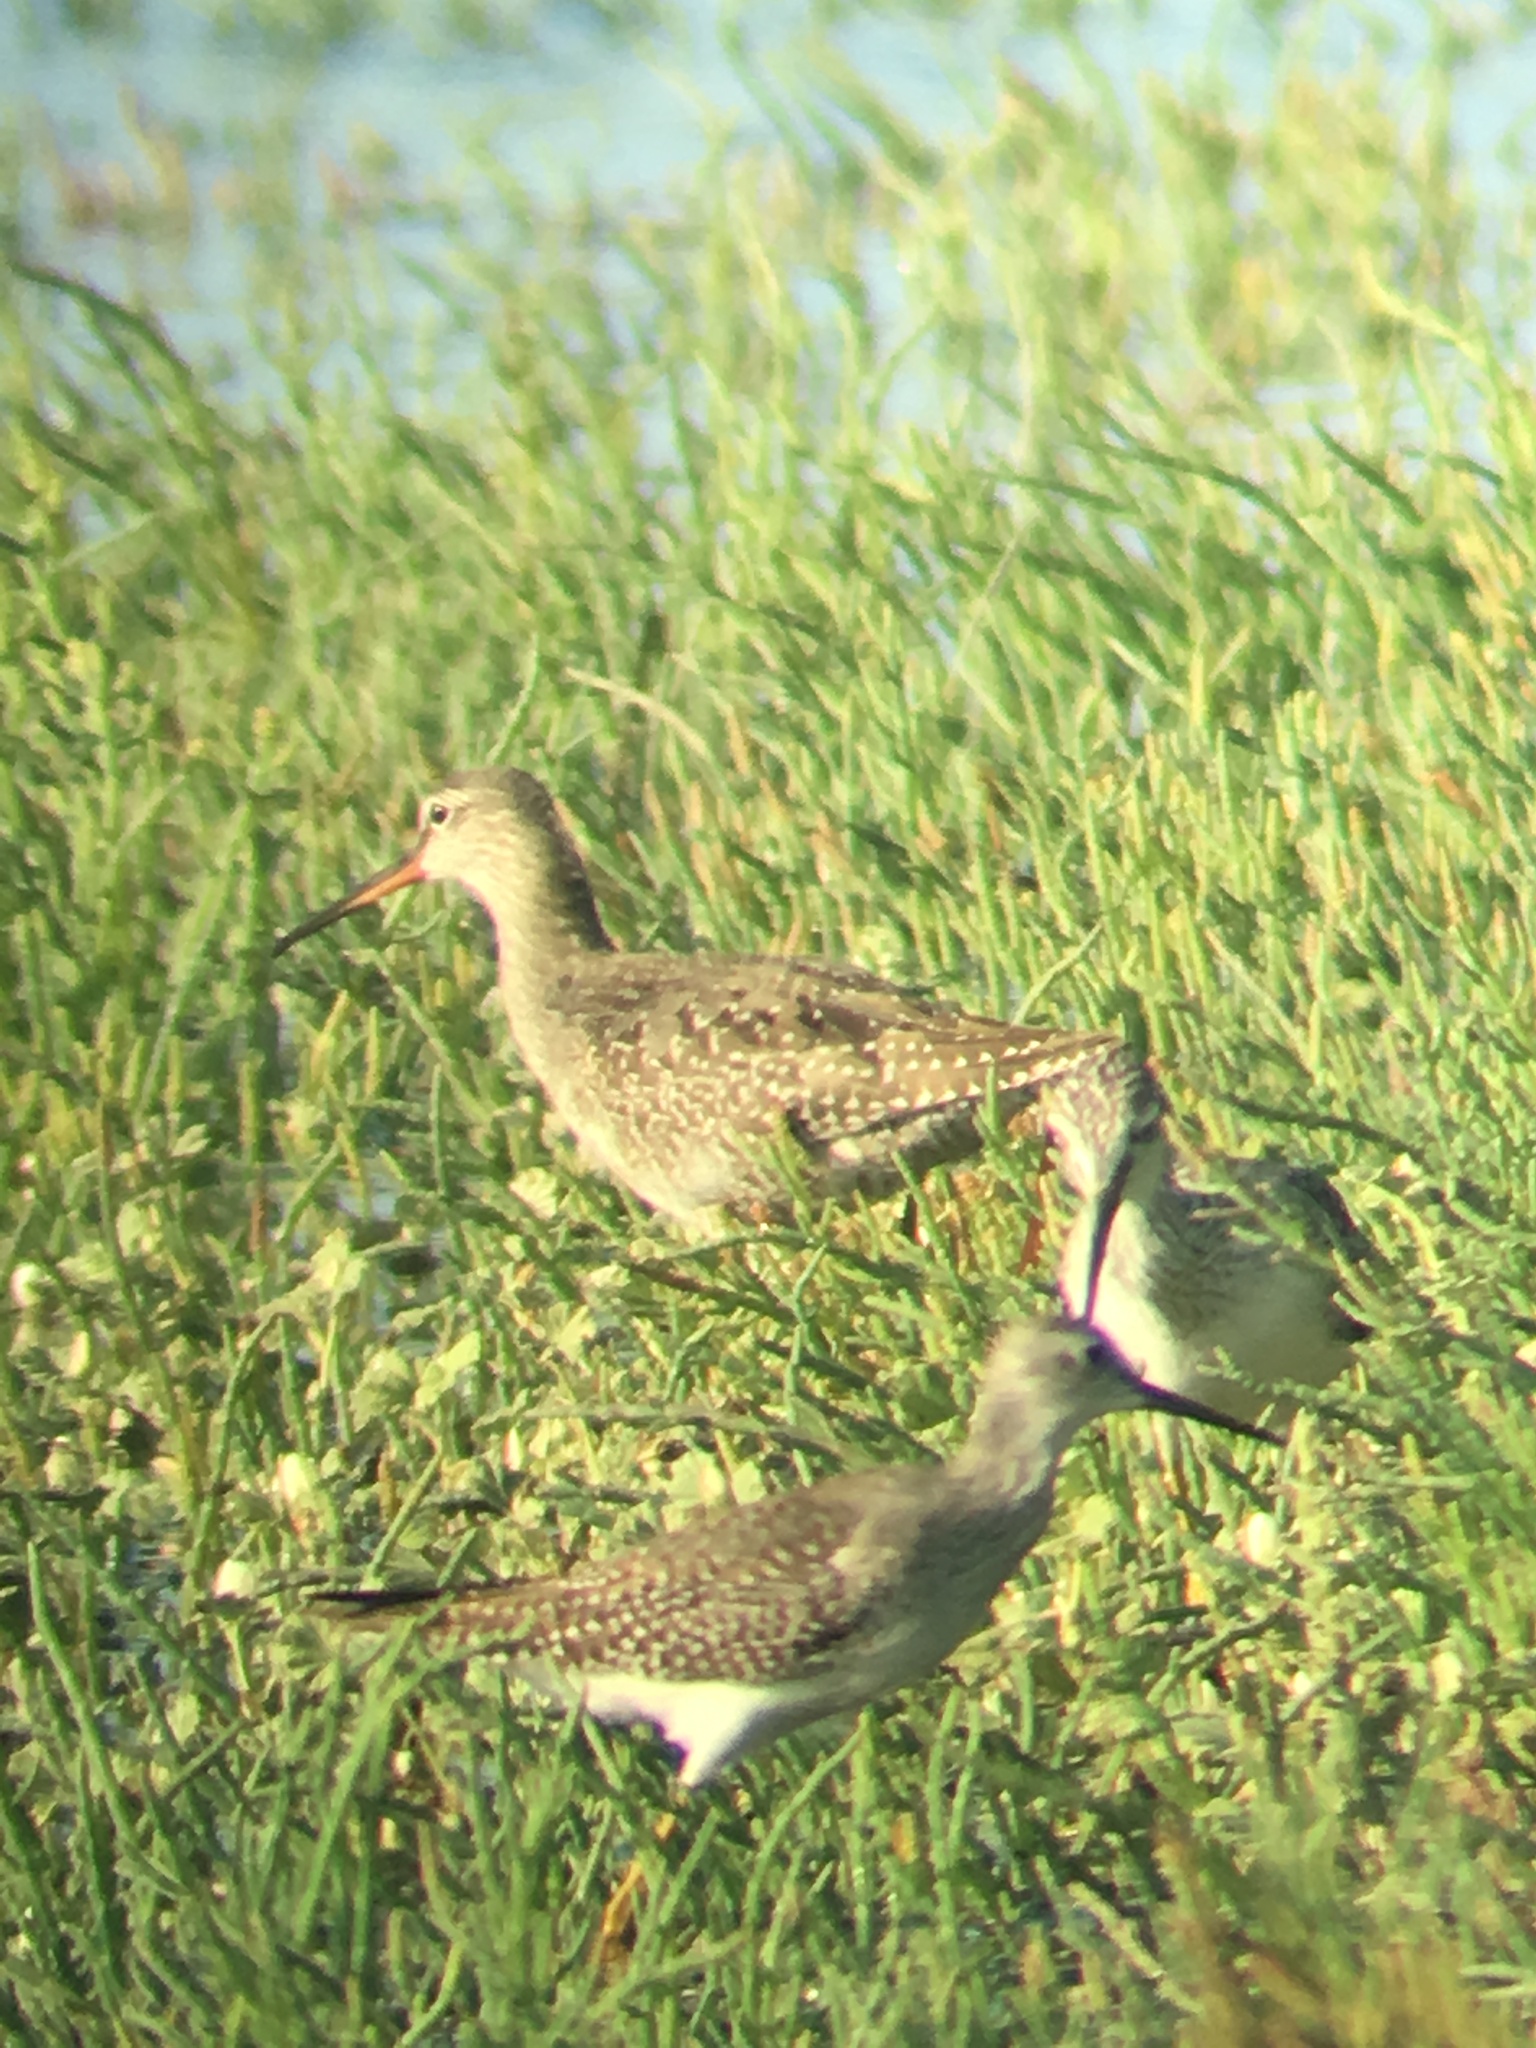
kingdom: Animalia
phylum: Chordata
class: Aves
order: Charadriiformes
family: Scolopacidae
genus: Tringa
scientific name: Tringa erythropus
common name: Spotted redshank
